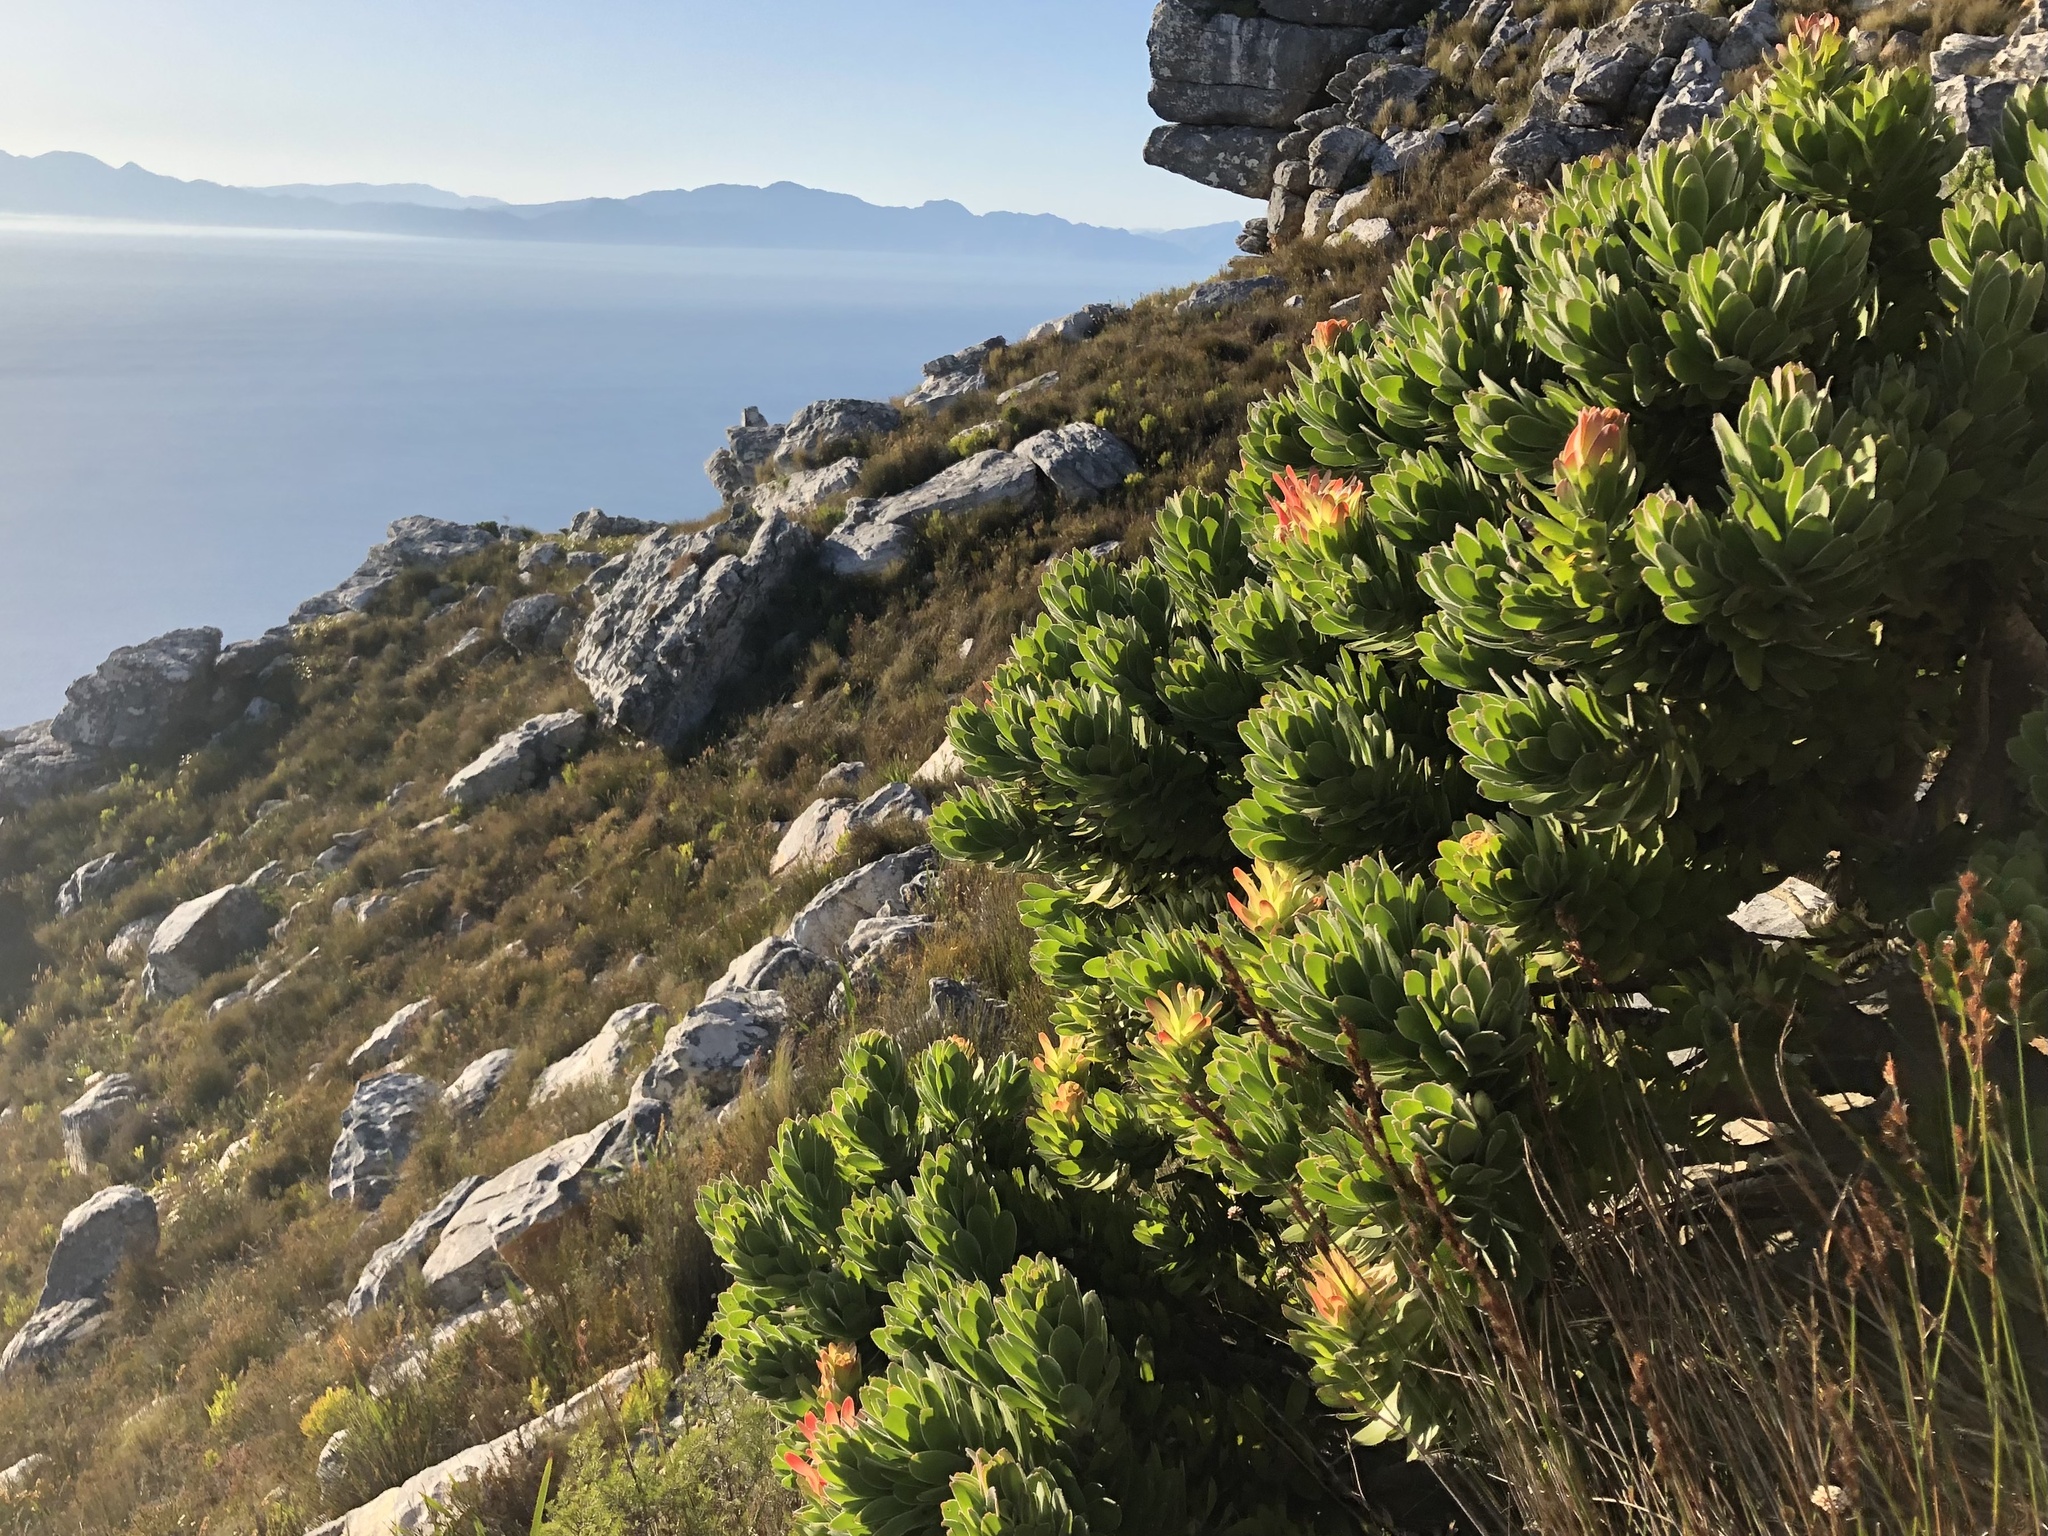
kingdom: Plantae
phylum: Tracheophyta
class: Magnoliopsida
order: Proteales
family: Proteaceae
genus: Mimetes
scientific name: Mimetes fimbriifolius
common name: Fringed bottlebrush
